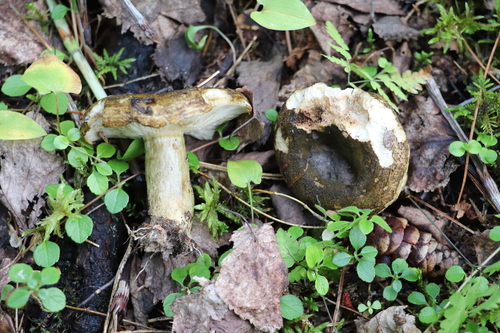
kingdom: Fungi
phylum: Basidiomycota
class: Agaricomycetes
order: Russulales
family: Russulaceae
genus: Lactarius
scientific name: Lactarius turpis
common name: Ugly milk-cap
